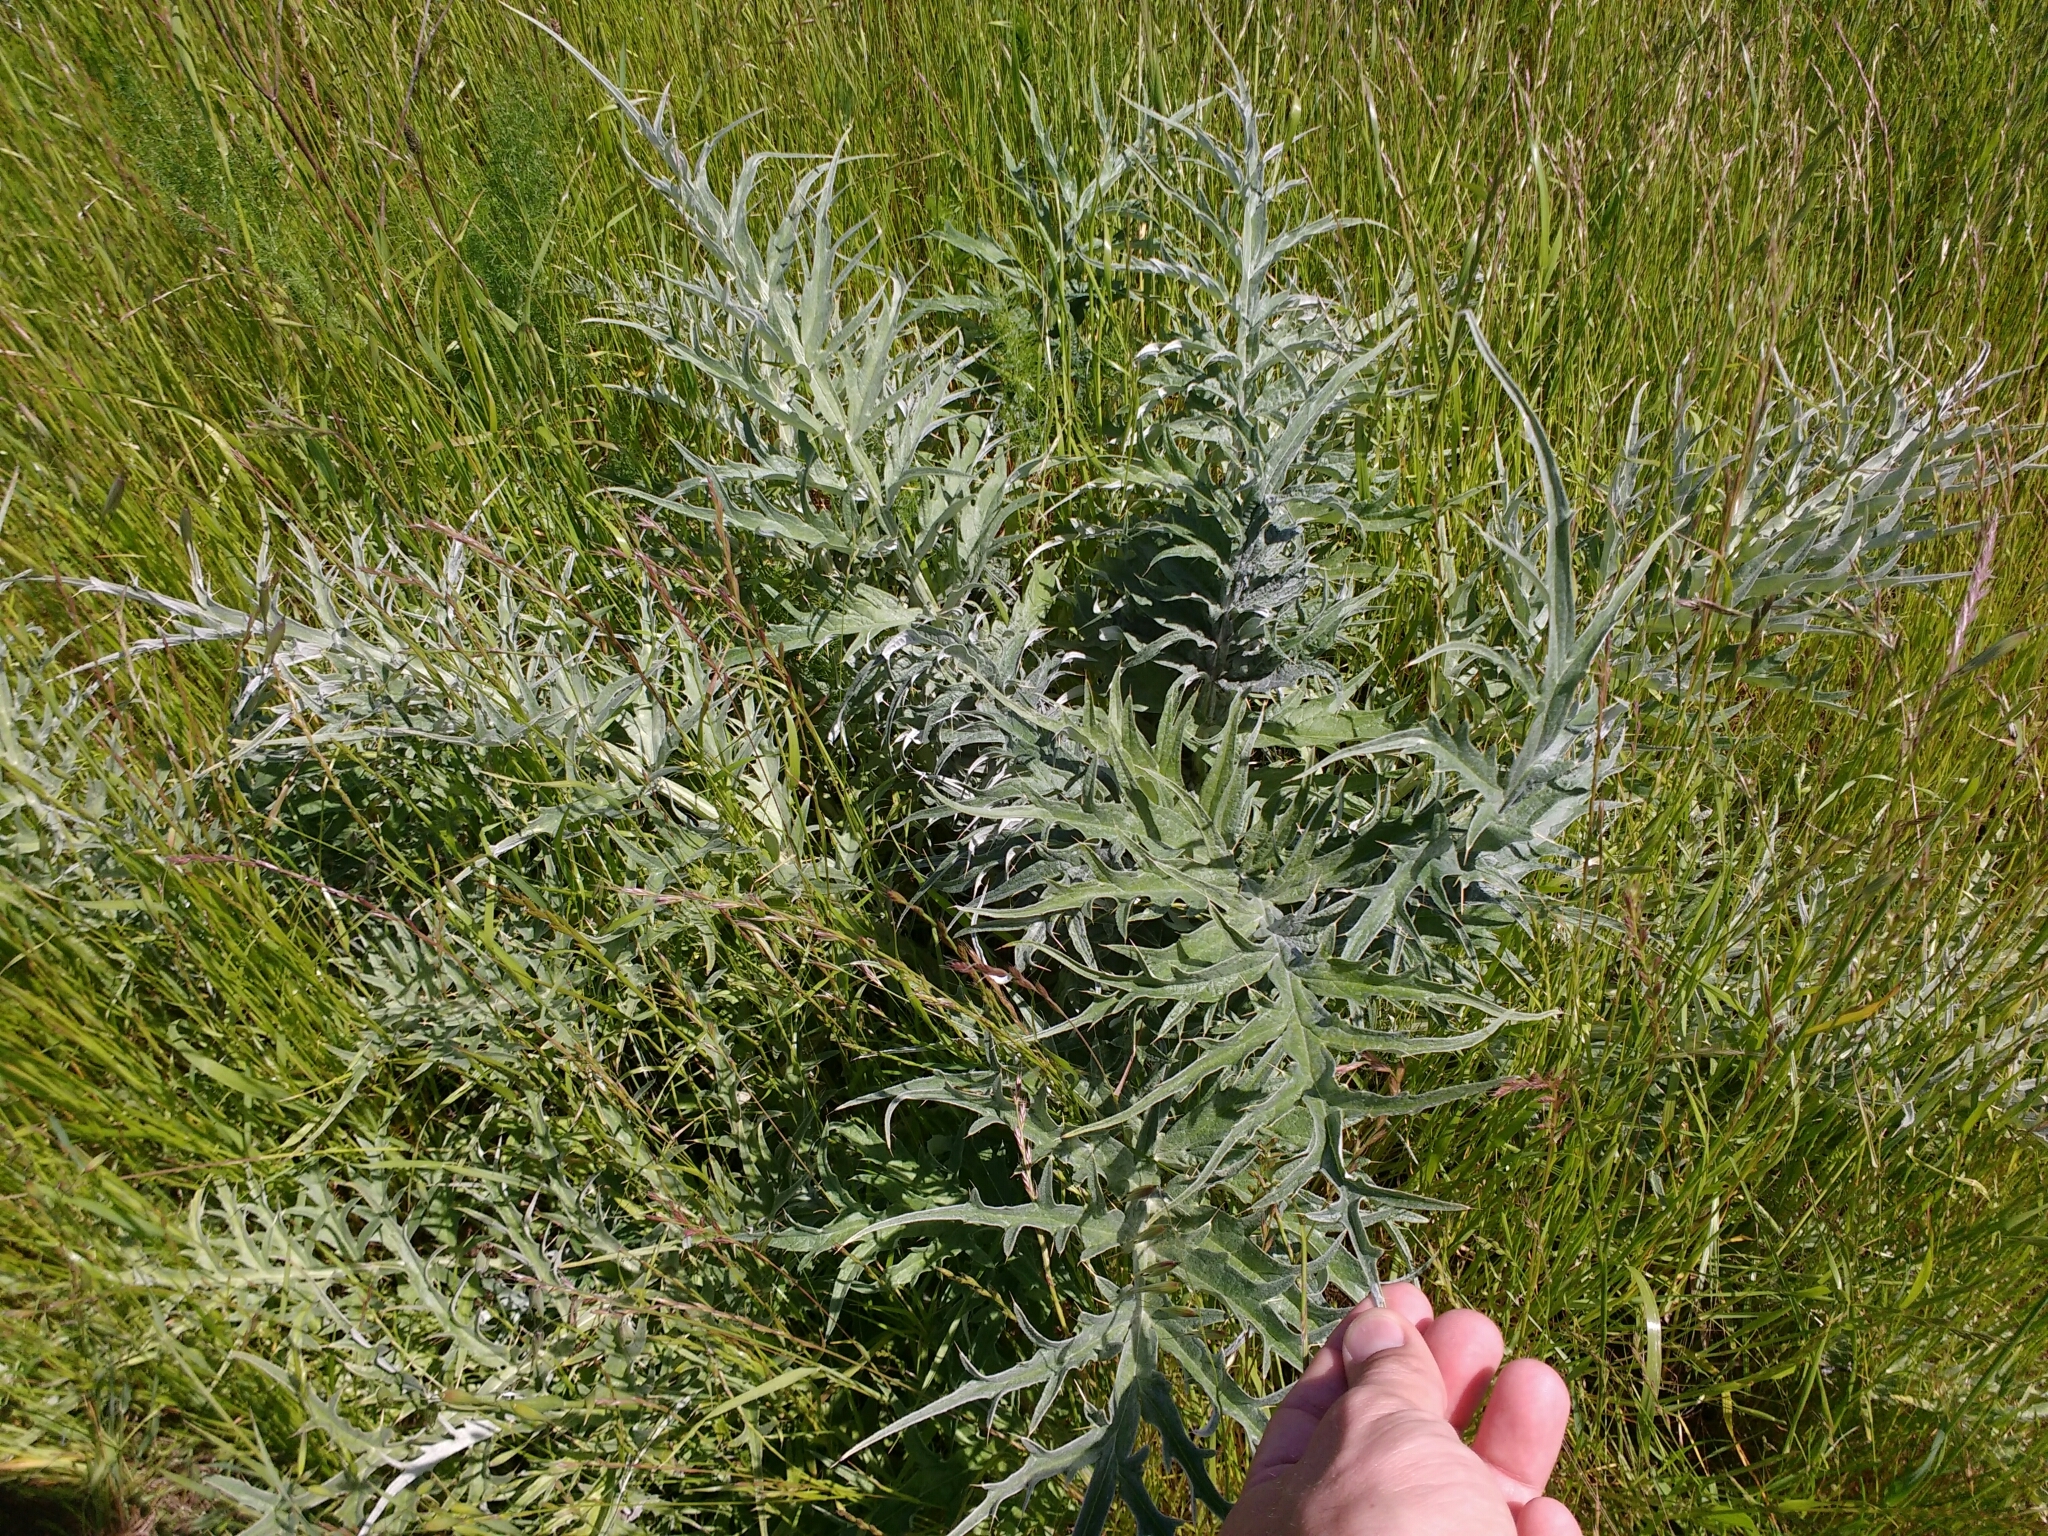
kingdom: Plantae
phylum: Tracheophyta
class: Magnoliopsida
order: Asterales
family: Asteraceae
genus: Cynara
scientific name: Cynara cardunculus
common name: Globe artichoke
